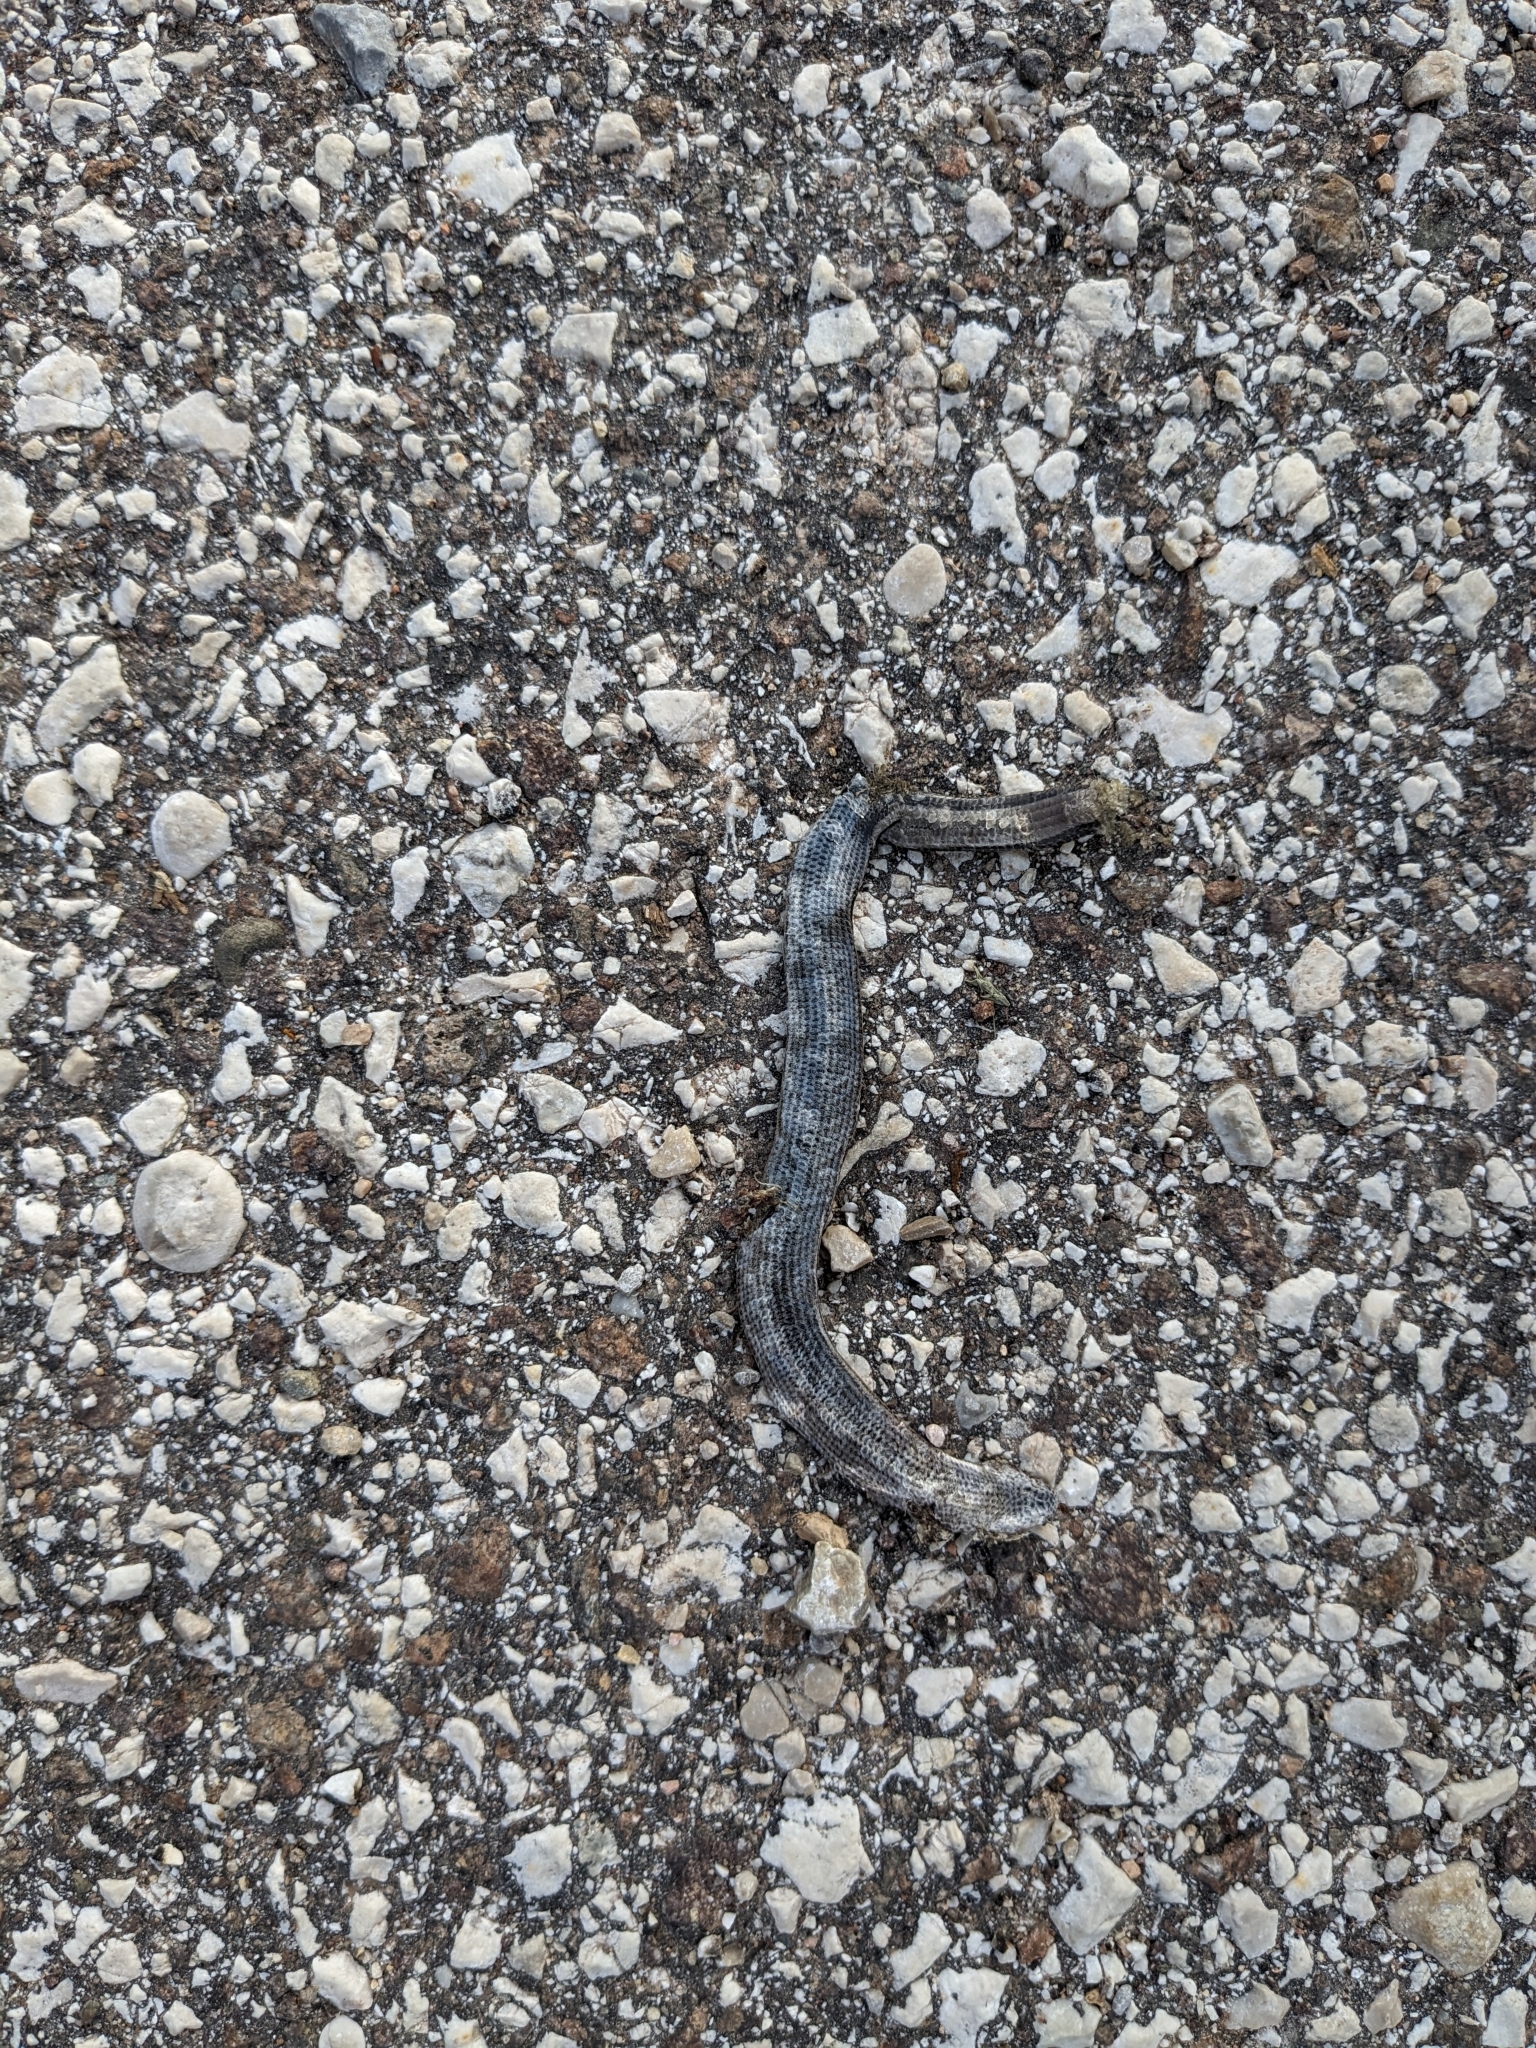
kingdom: Animalia
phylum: Chordata
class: Squamata
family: Anguidae
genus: Anguis
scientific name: Anguis veronensis
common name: Italian slow worm
